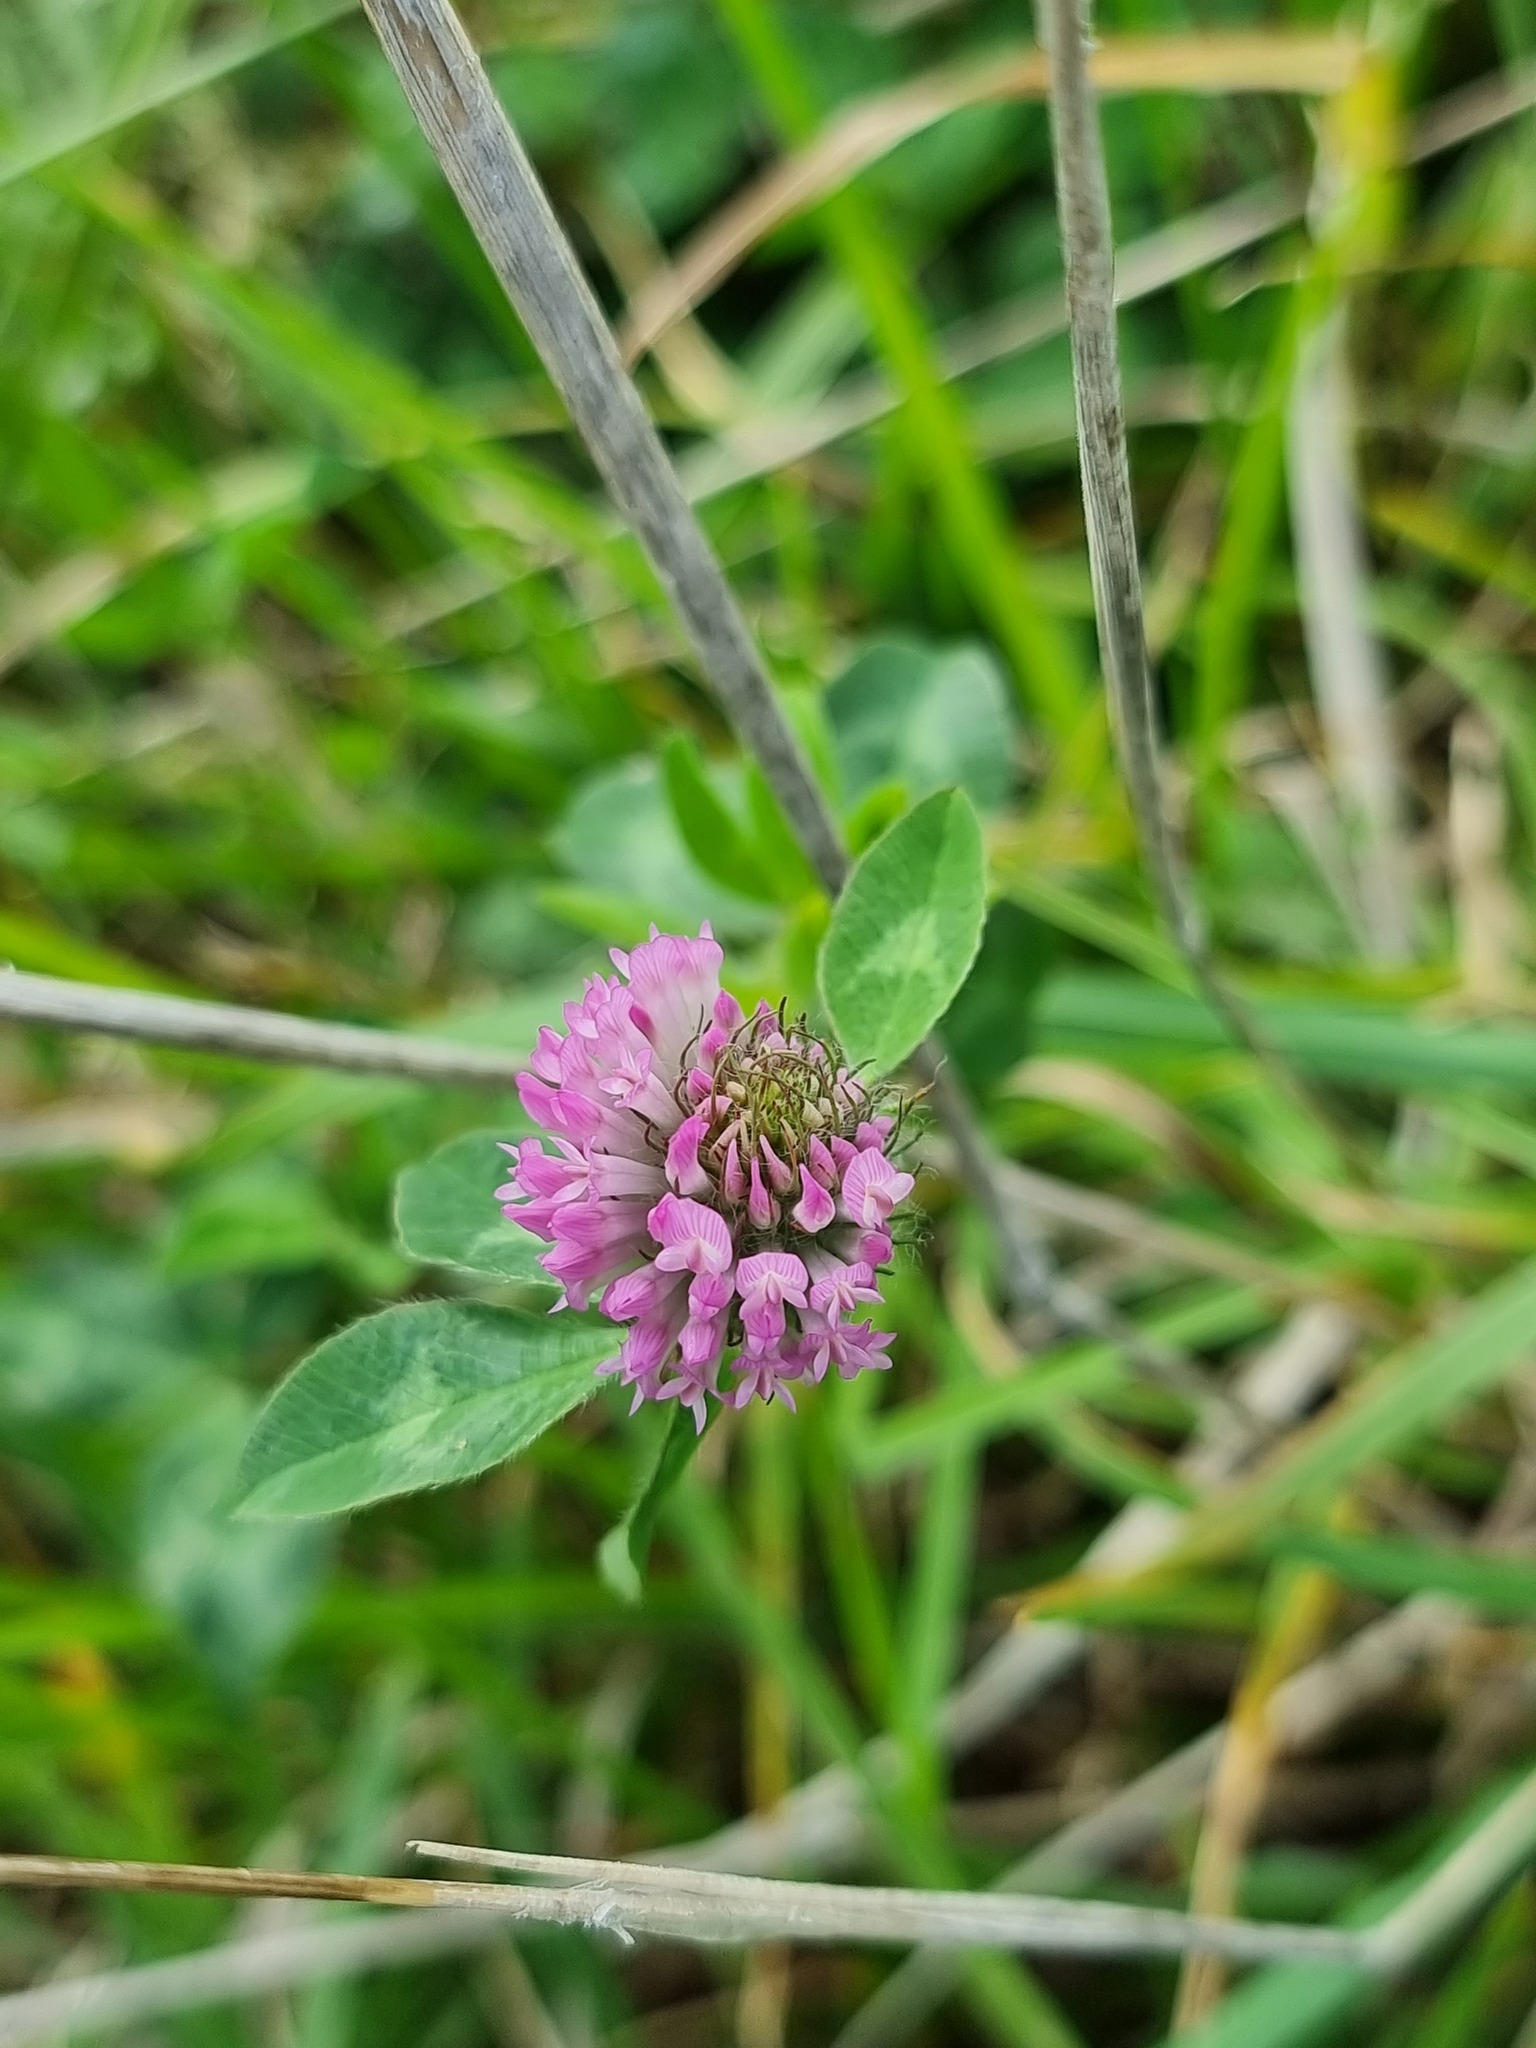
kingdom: Plantae
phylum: Tracheophyta
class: Magnoliopsida
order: Fabales
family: Fabaceae
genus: Trifolium
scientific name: Trifolium pratense
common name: Red clover
